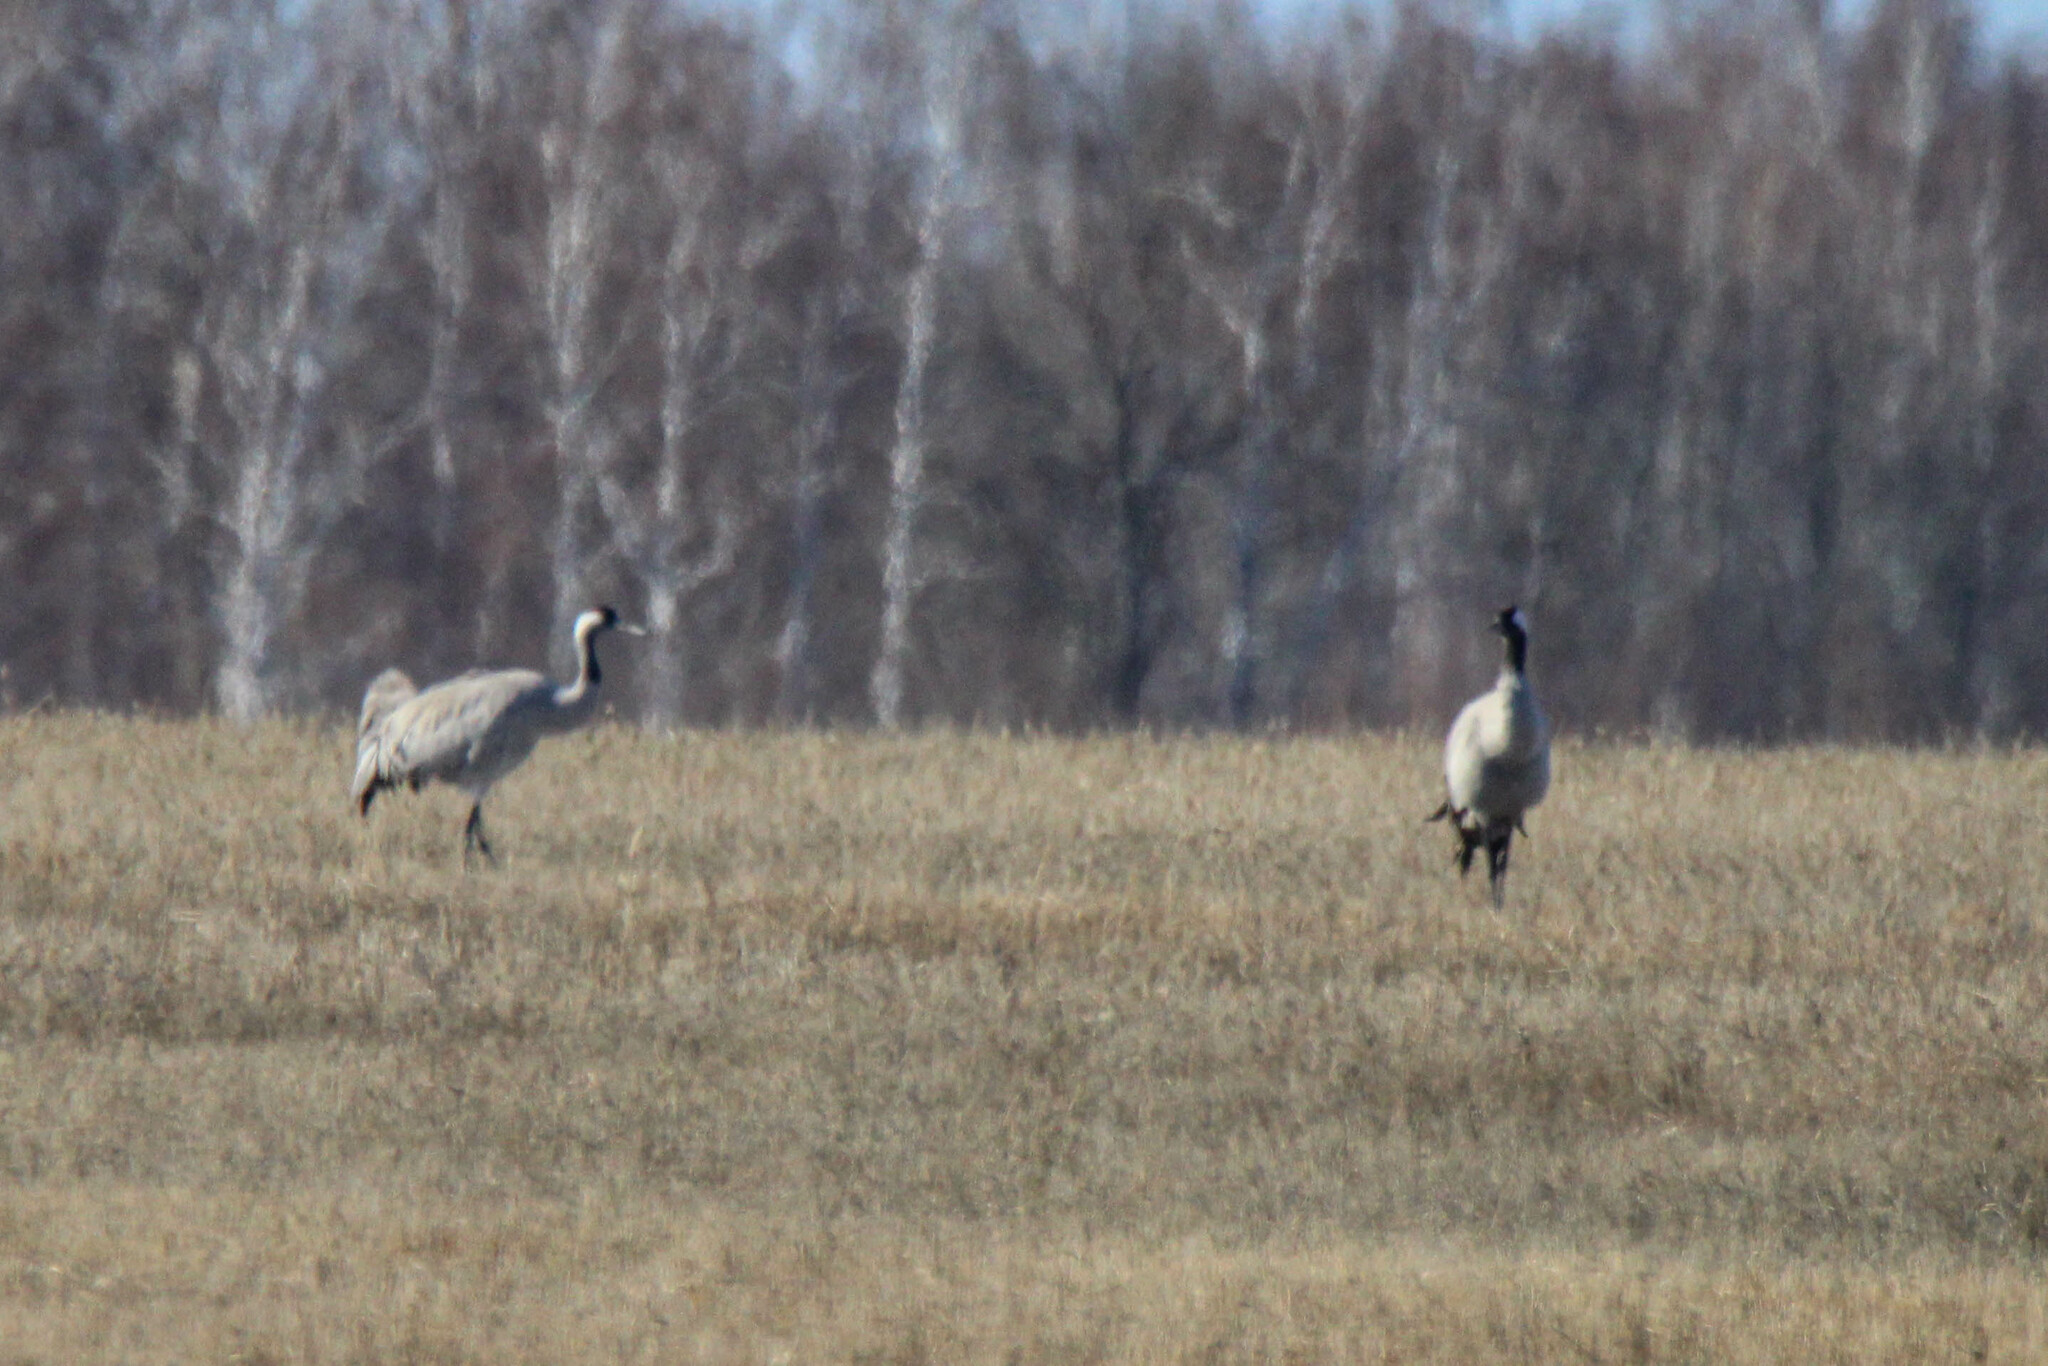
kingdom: Animalia
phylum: Chordata
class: Aves
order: Gruiformes
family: Gruidae
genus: Grus
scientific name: Grus grus
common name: Common crane
